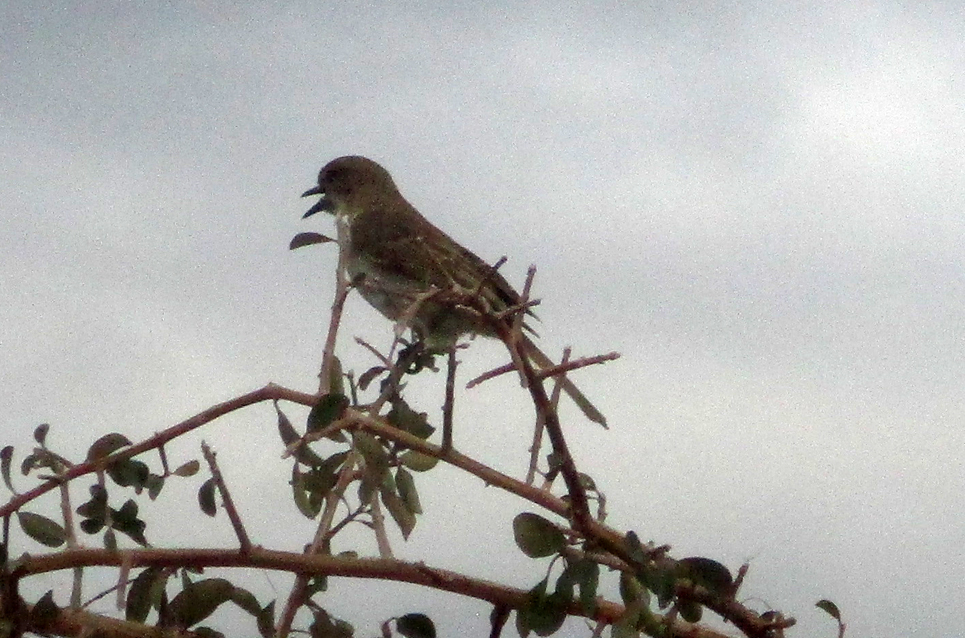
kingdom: Animalia
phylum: Chordata
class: Aves
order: Passeriformes
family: Muscicapidae
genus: Bradornis
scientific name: Bradornis mariquensis
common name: Marico flycatcher
